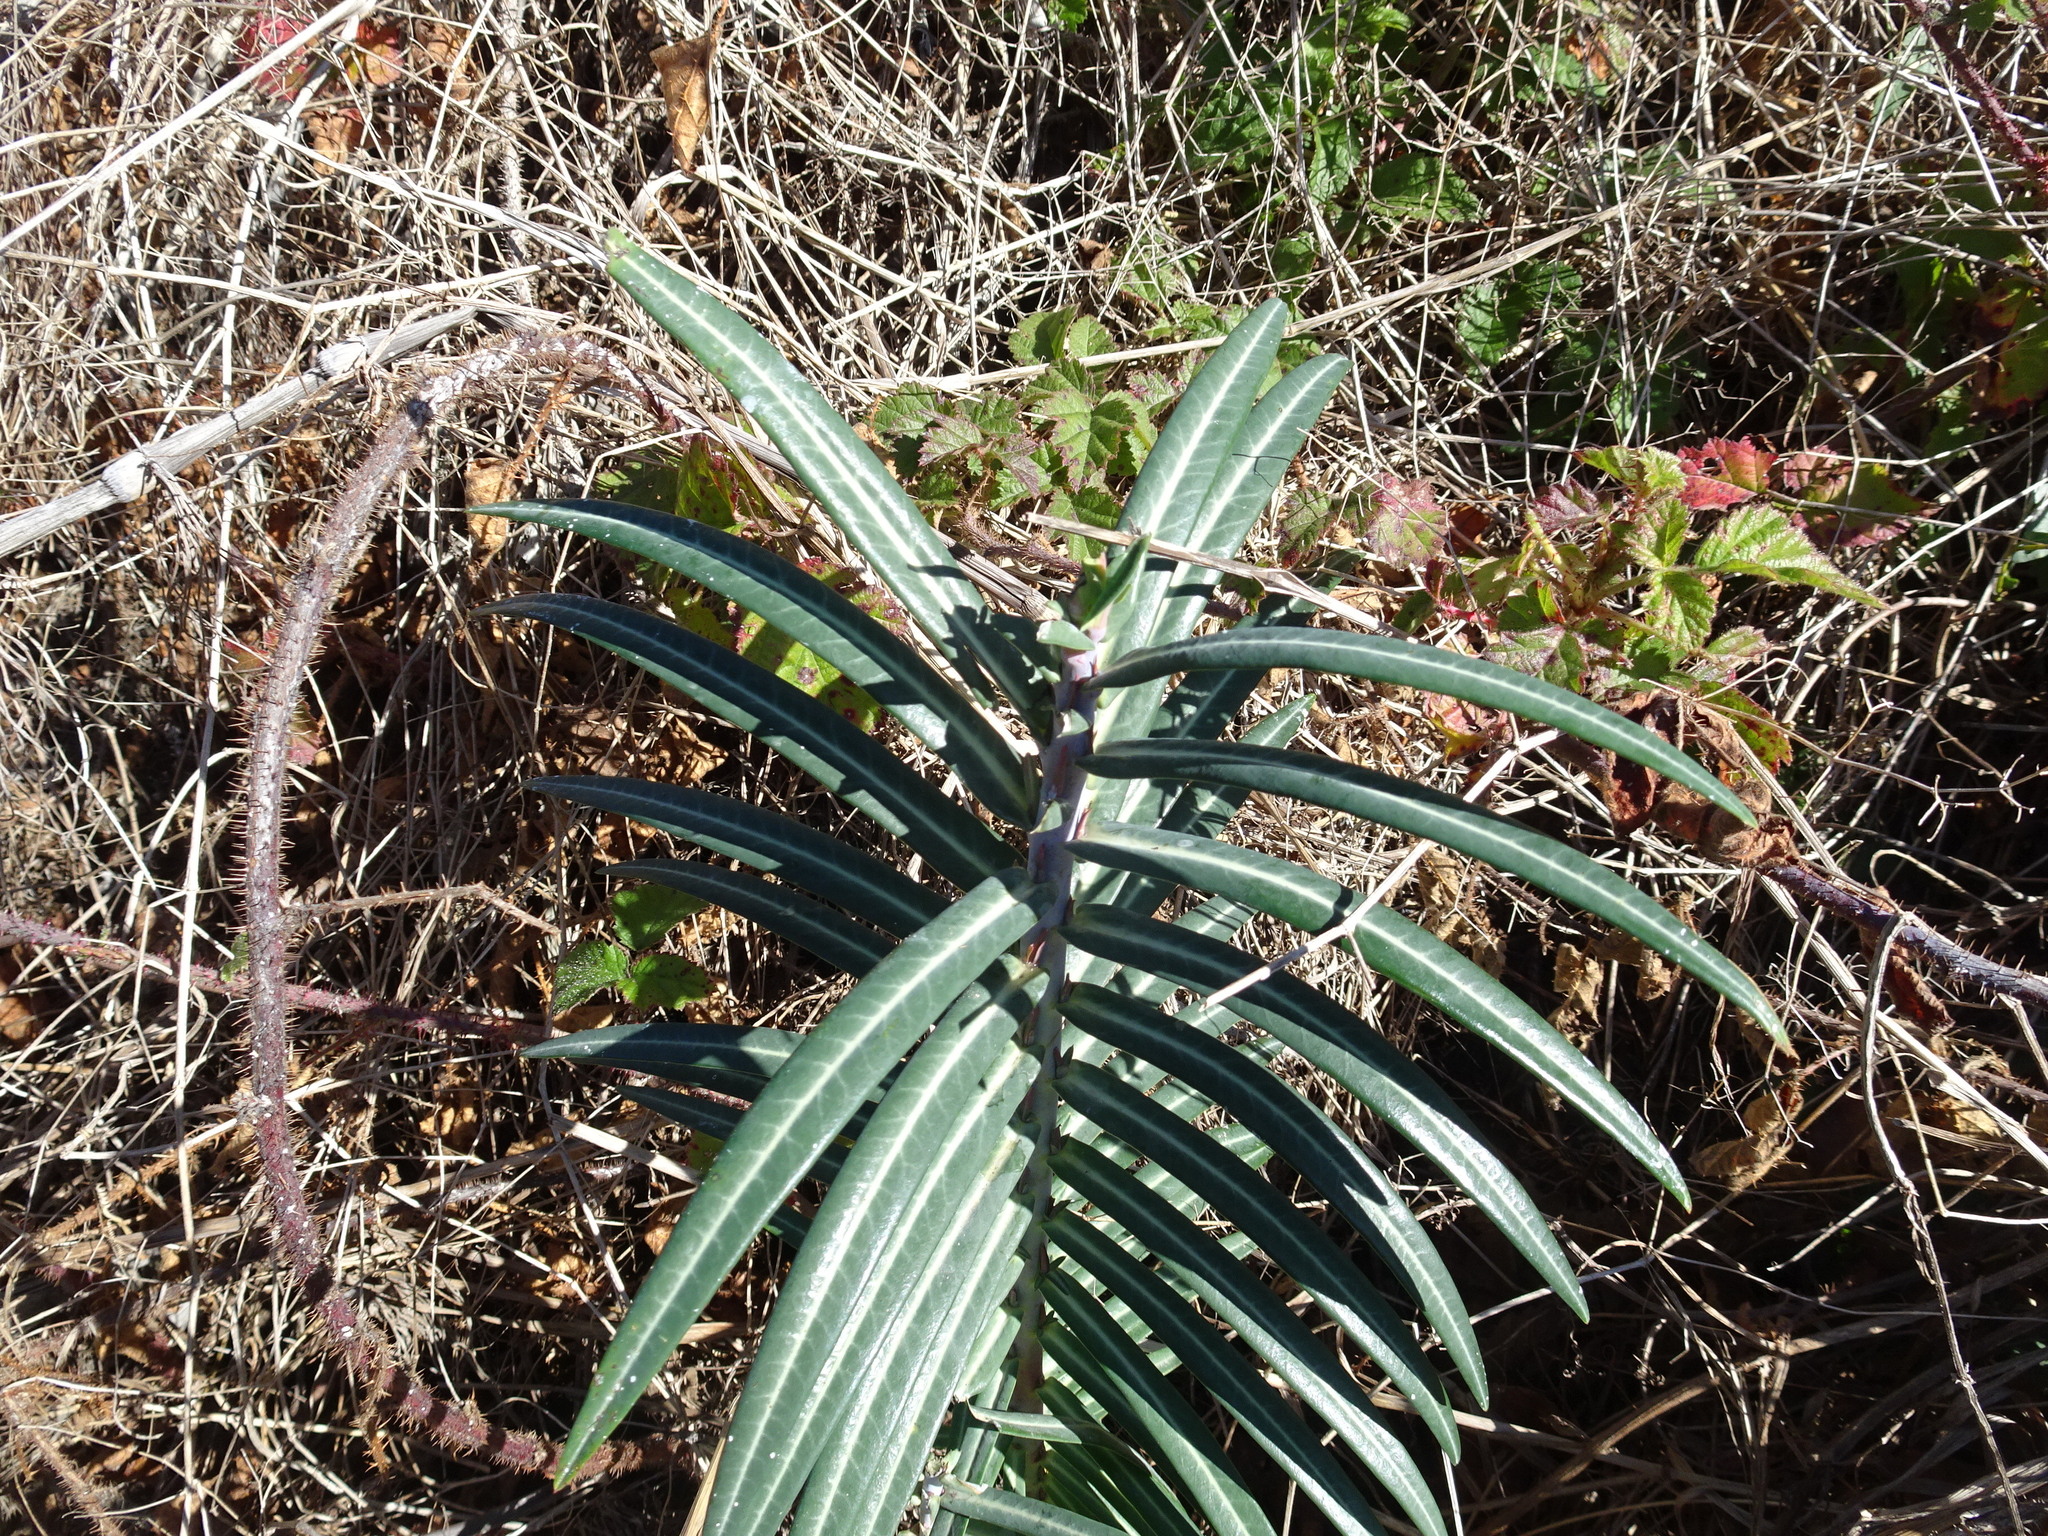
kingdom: Plantae
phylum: Tracheophyta
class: Magnoliopsida
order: Malpighiales
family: Euphorbiaceae
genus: Euphorbia
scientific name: Euphorbia lathyris
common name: Caper spurge
